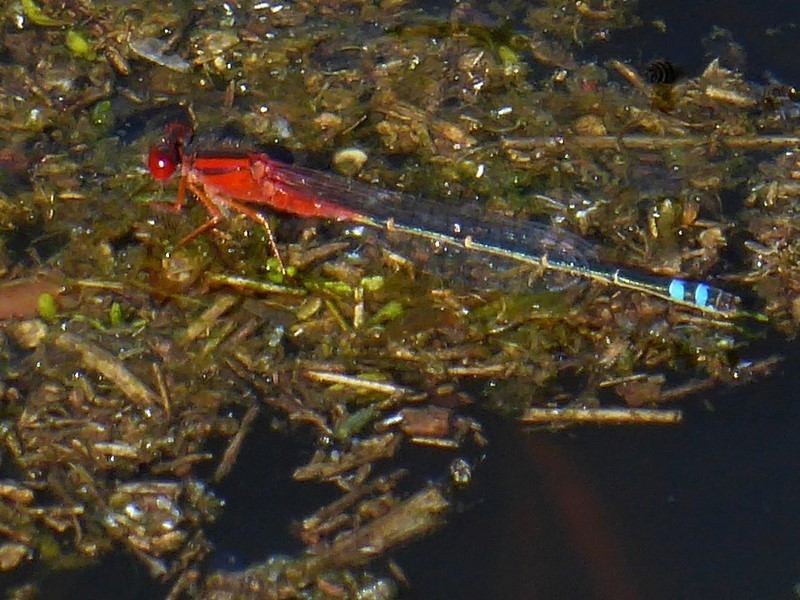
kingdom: Animalia
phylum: Arthropoda
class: Insecta
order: Odonata
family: Coenagrionidae
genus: Xanthagrion
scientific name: Xanthagrion erythroneurum
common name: Red and blue damsel
